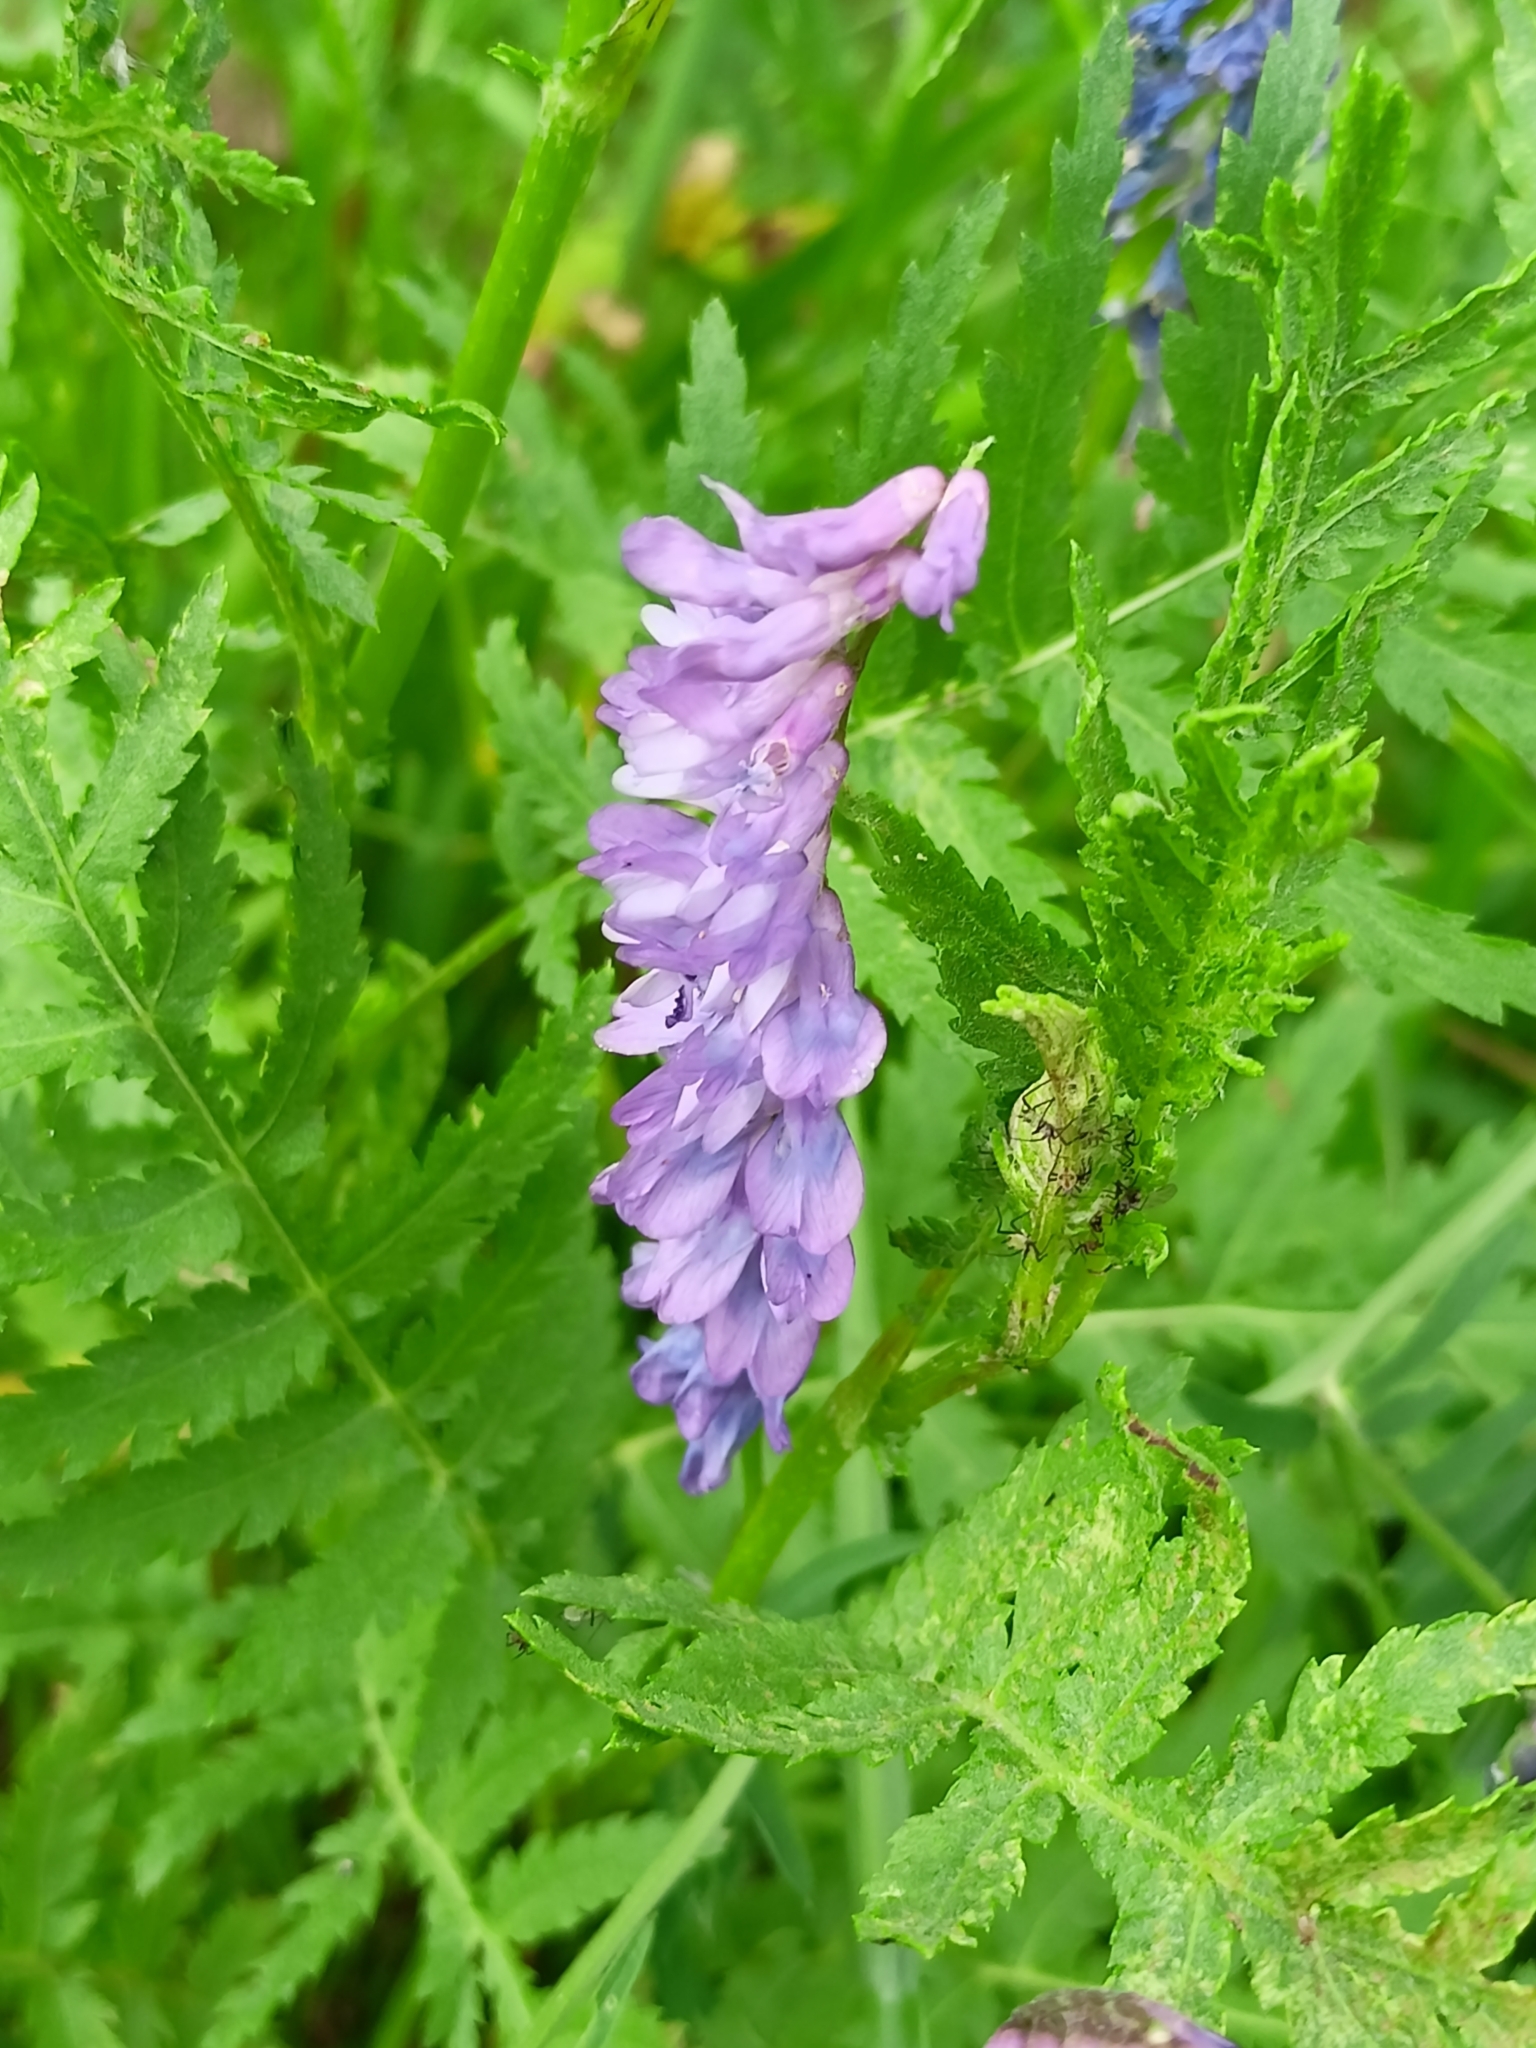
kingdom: Plantae
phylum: Tracheophyta
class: Magnoliopsida
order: Fabales
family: Fabaceae
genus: Vicia
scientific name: Vicia cracca
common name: Bird vetch
